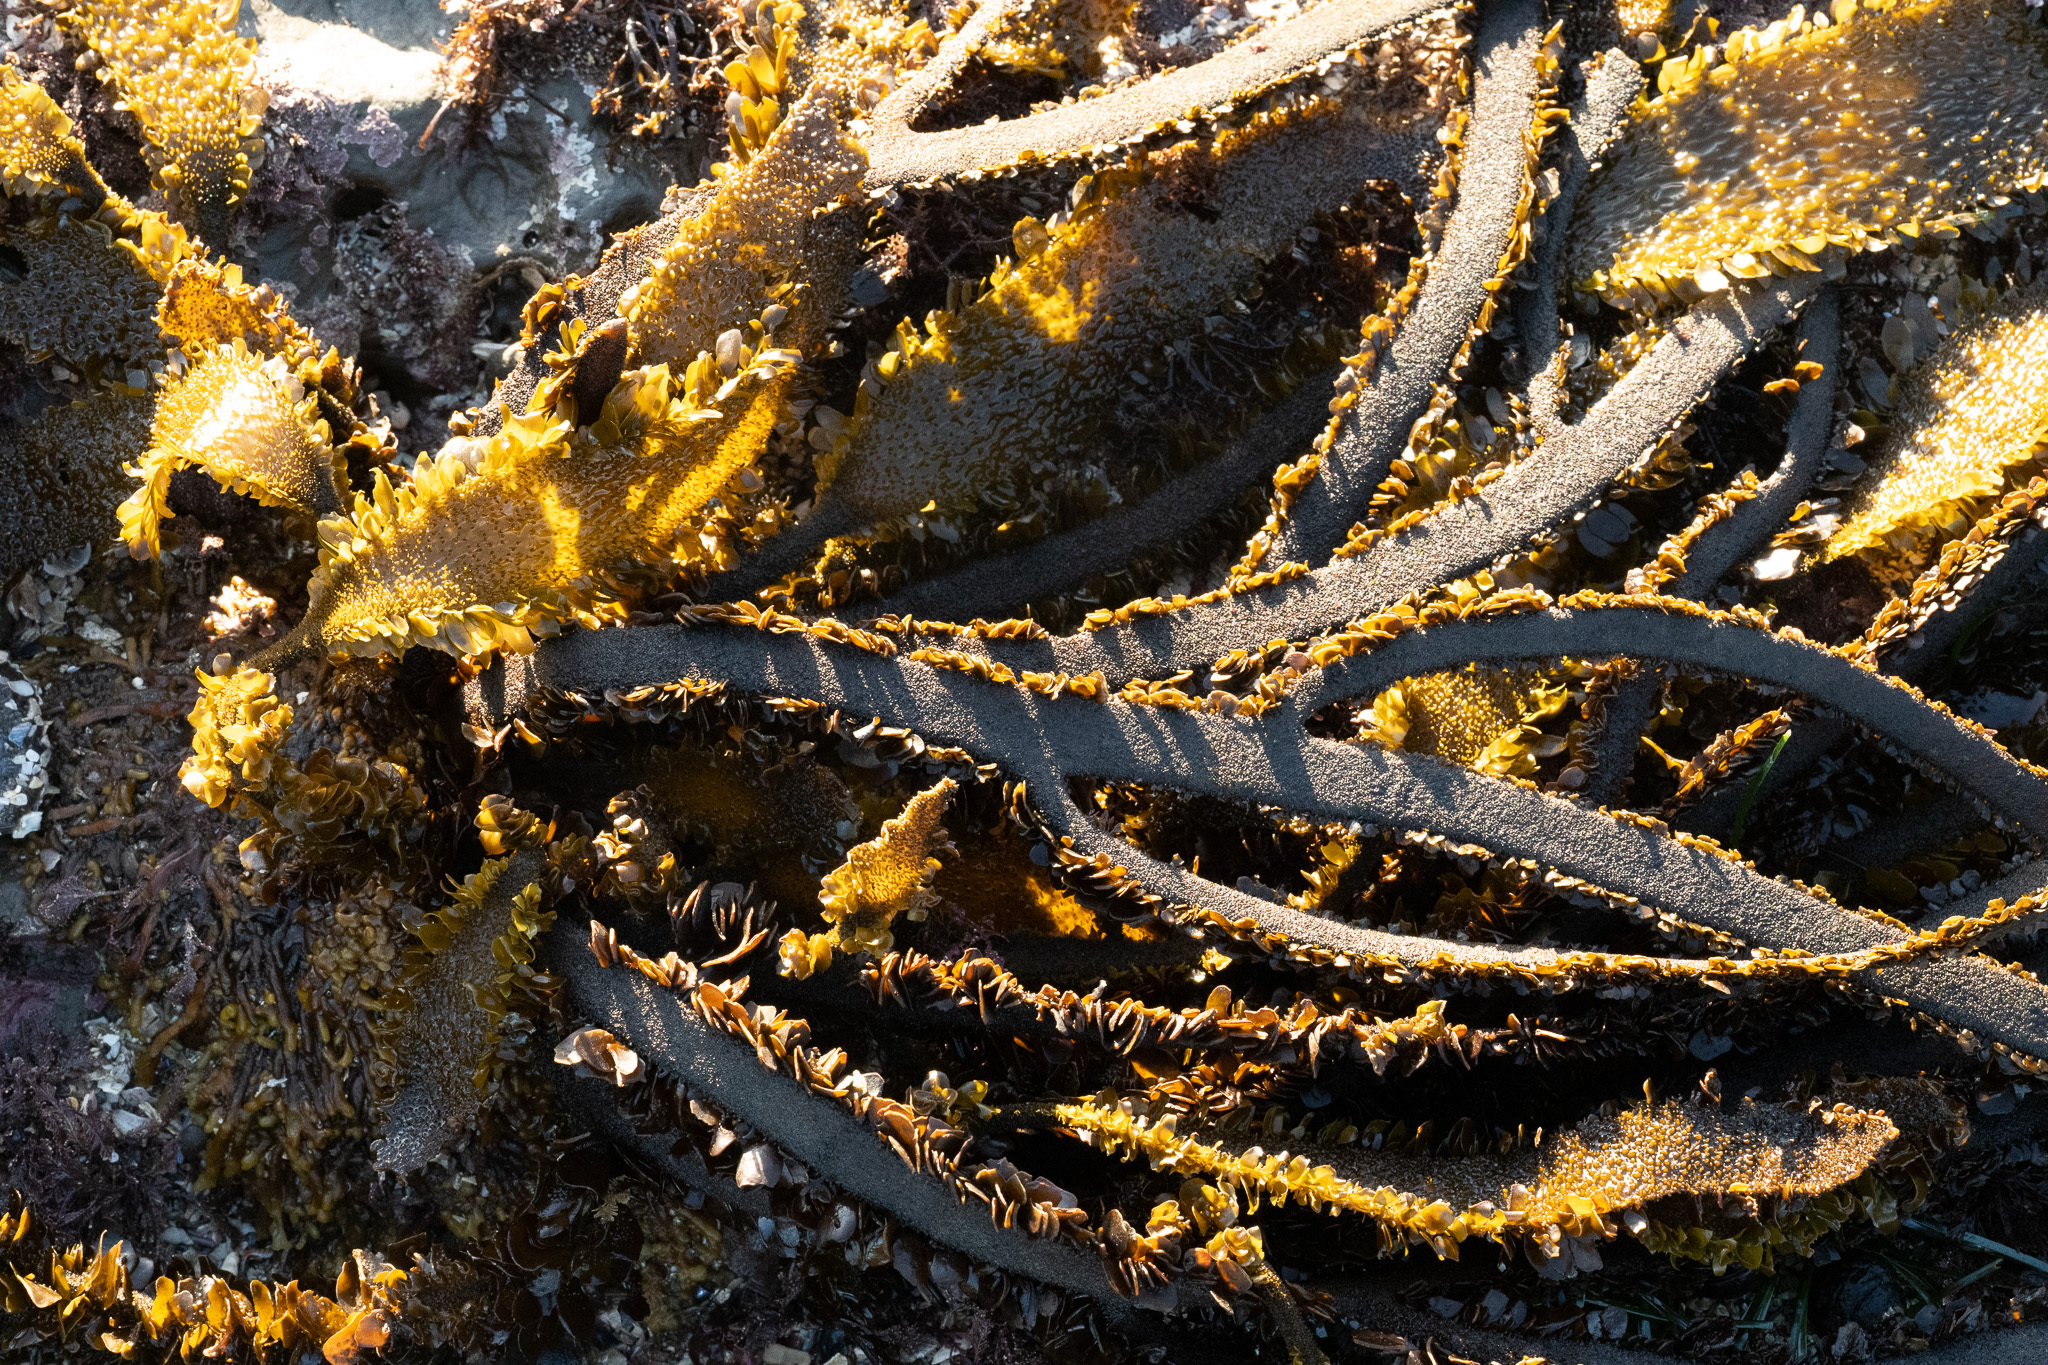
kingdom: Chromista
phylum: Ochrophyta
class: Phaeophyceae
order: Laminariales
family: Lessoniaceae
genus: Egregia
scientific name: Egregia menziesii
